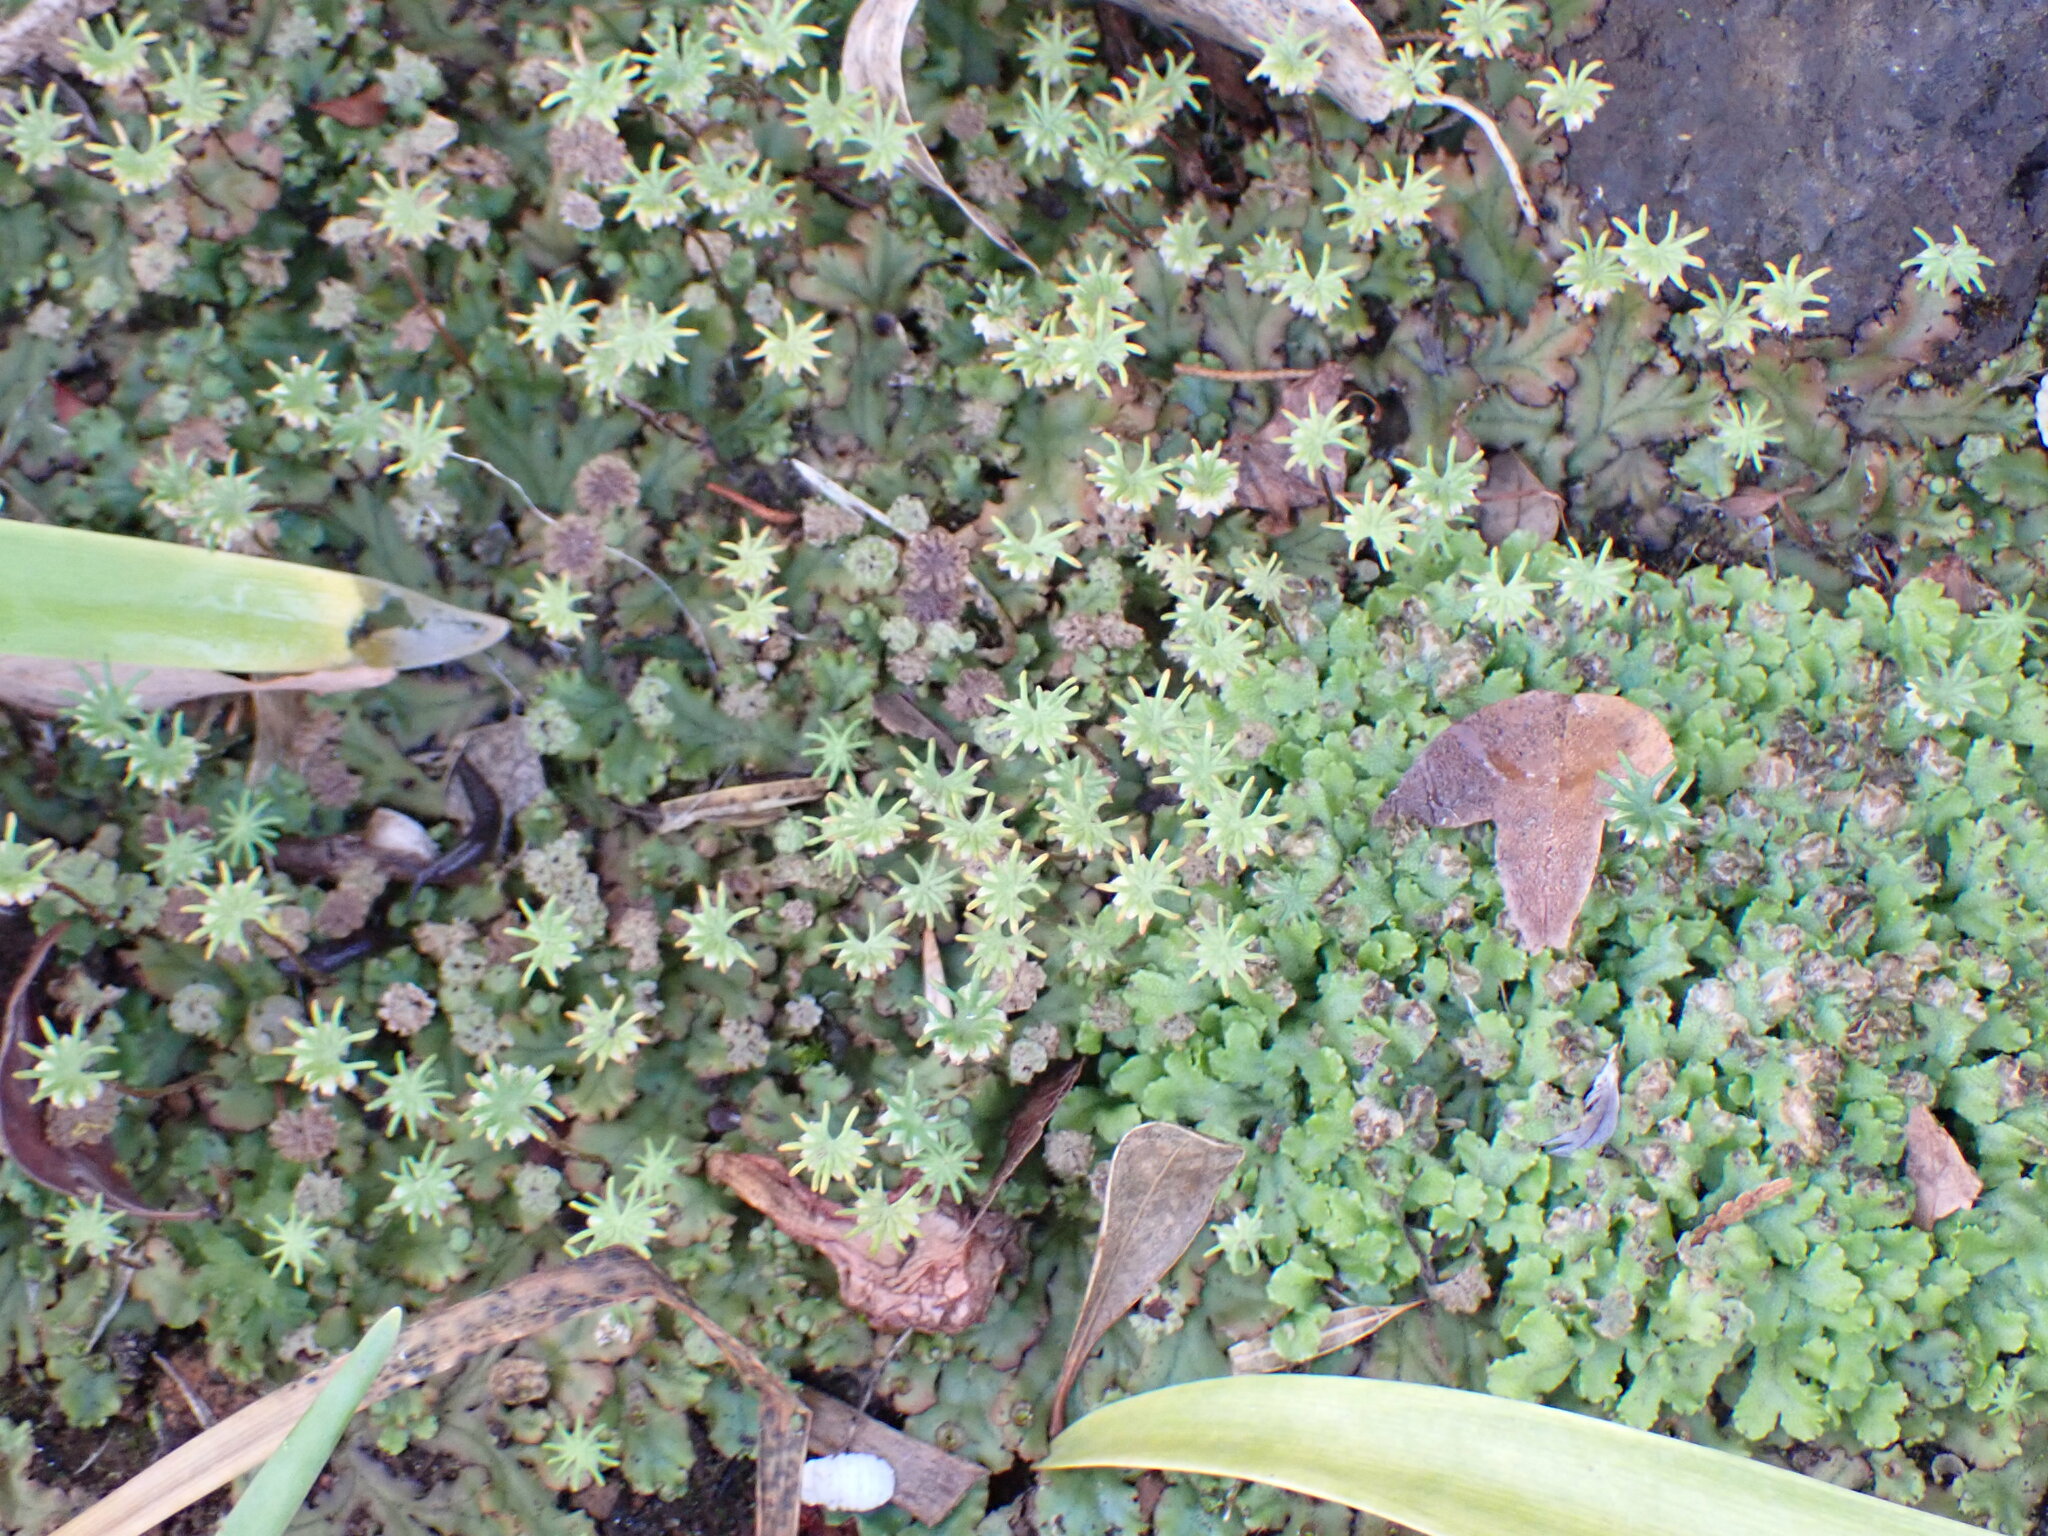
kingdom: Plantae
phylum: Marchantiophyta
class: Marchantiopsida
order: Marchantiales
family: Marchantiaceae
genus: Marchantia
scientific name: Marchantia polymorpha
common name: Common liverwort
